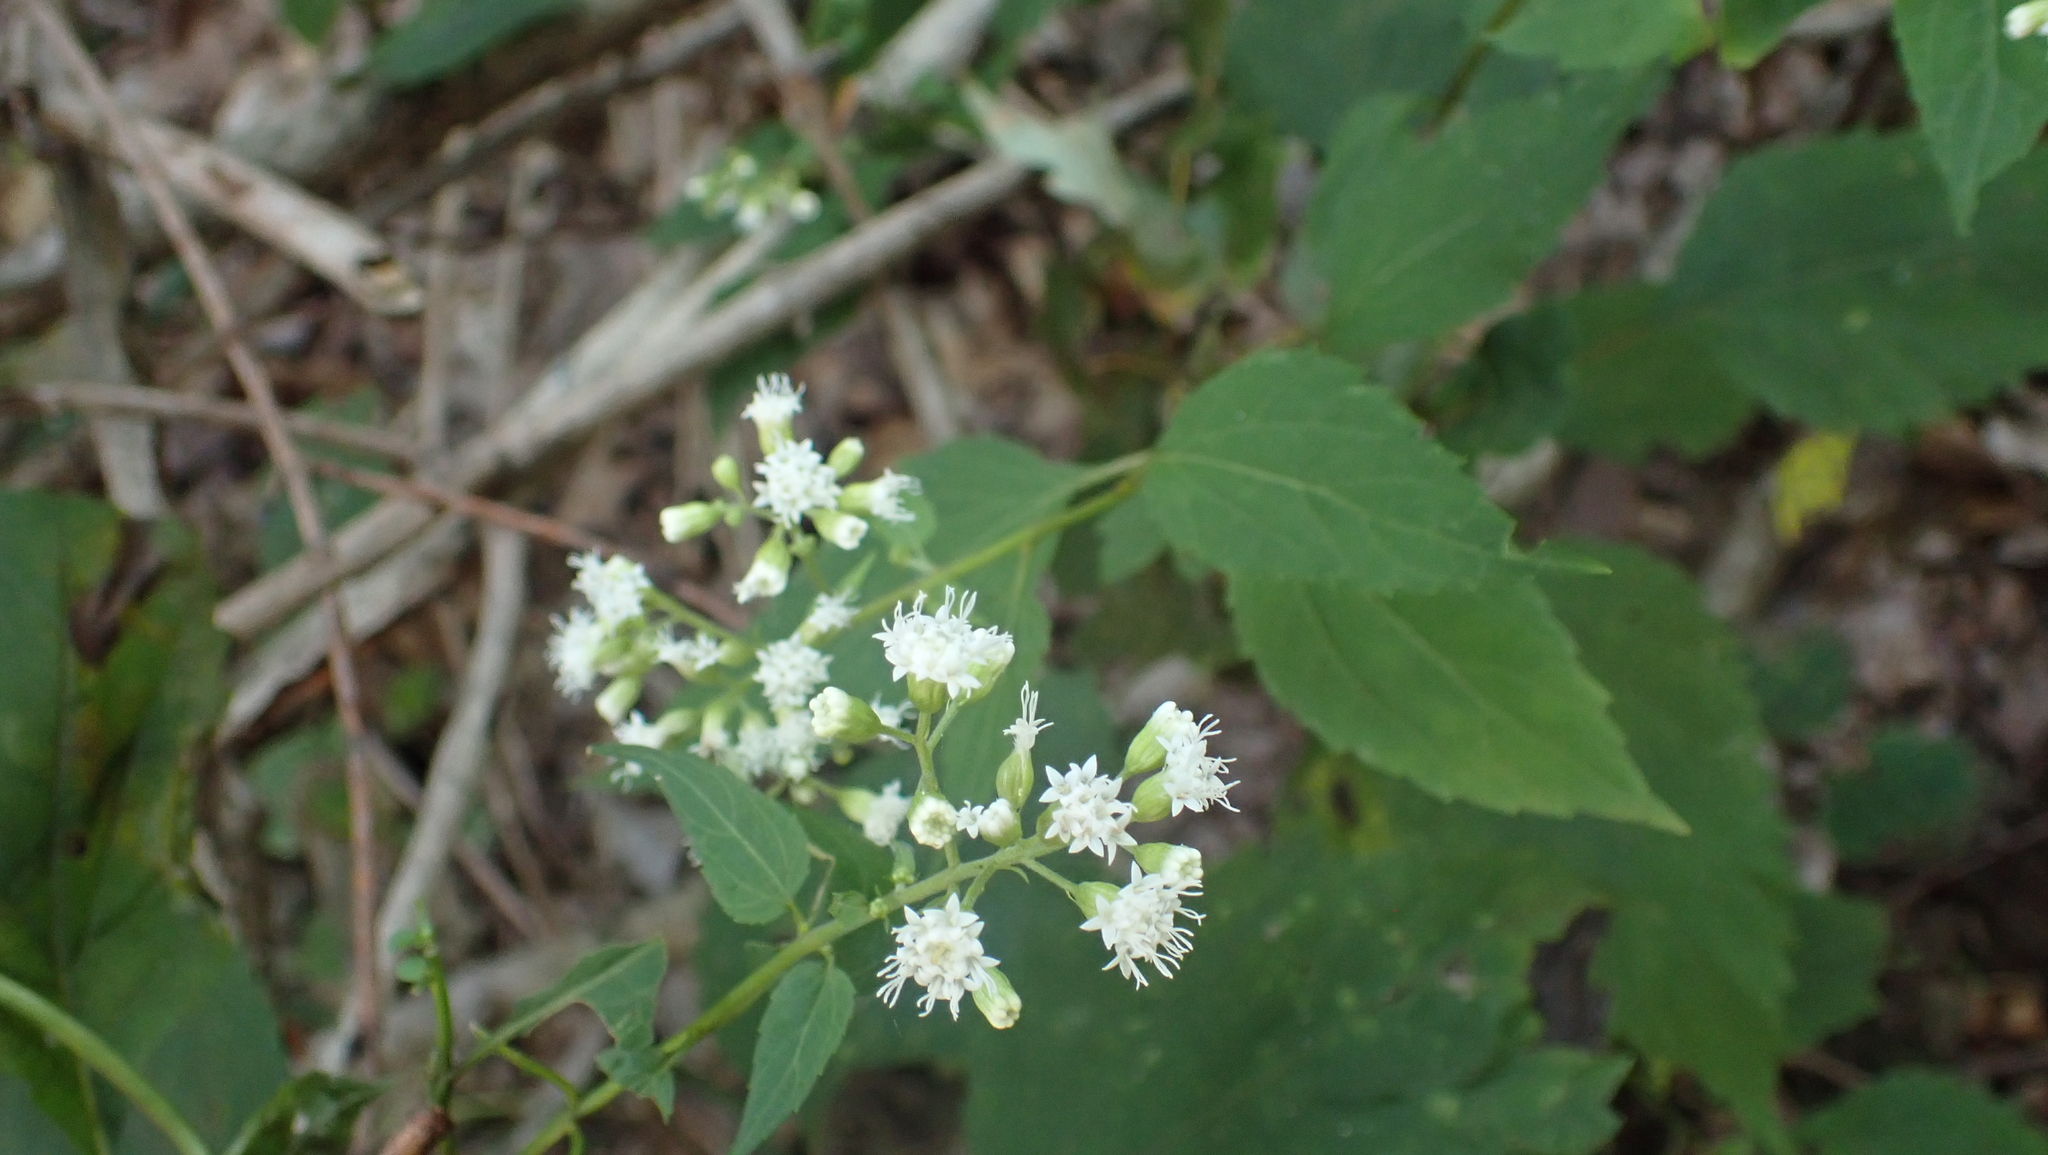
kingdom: Plantae
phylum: Tracheophyta
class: Magnoliopsida
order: Asterales
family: Asteraceae
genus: Ageratina
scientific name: Ageratina altissima
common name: White snakeroot
